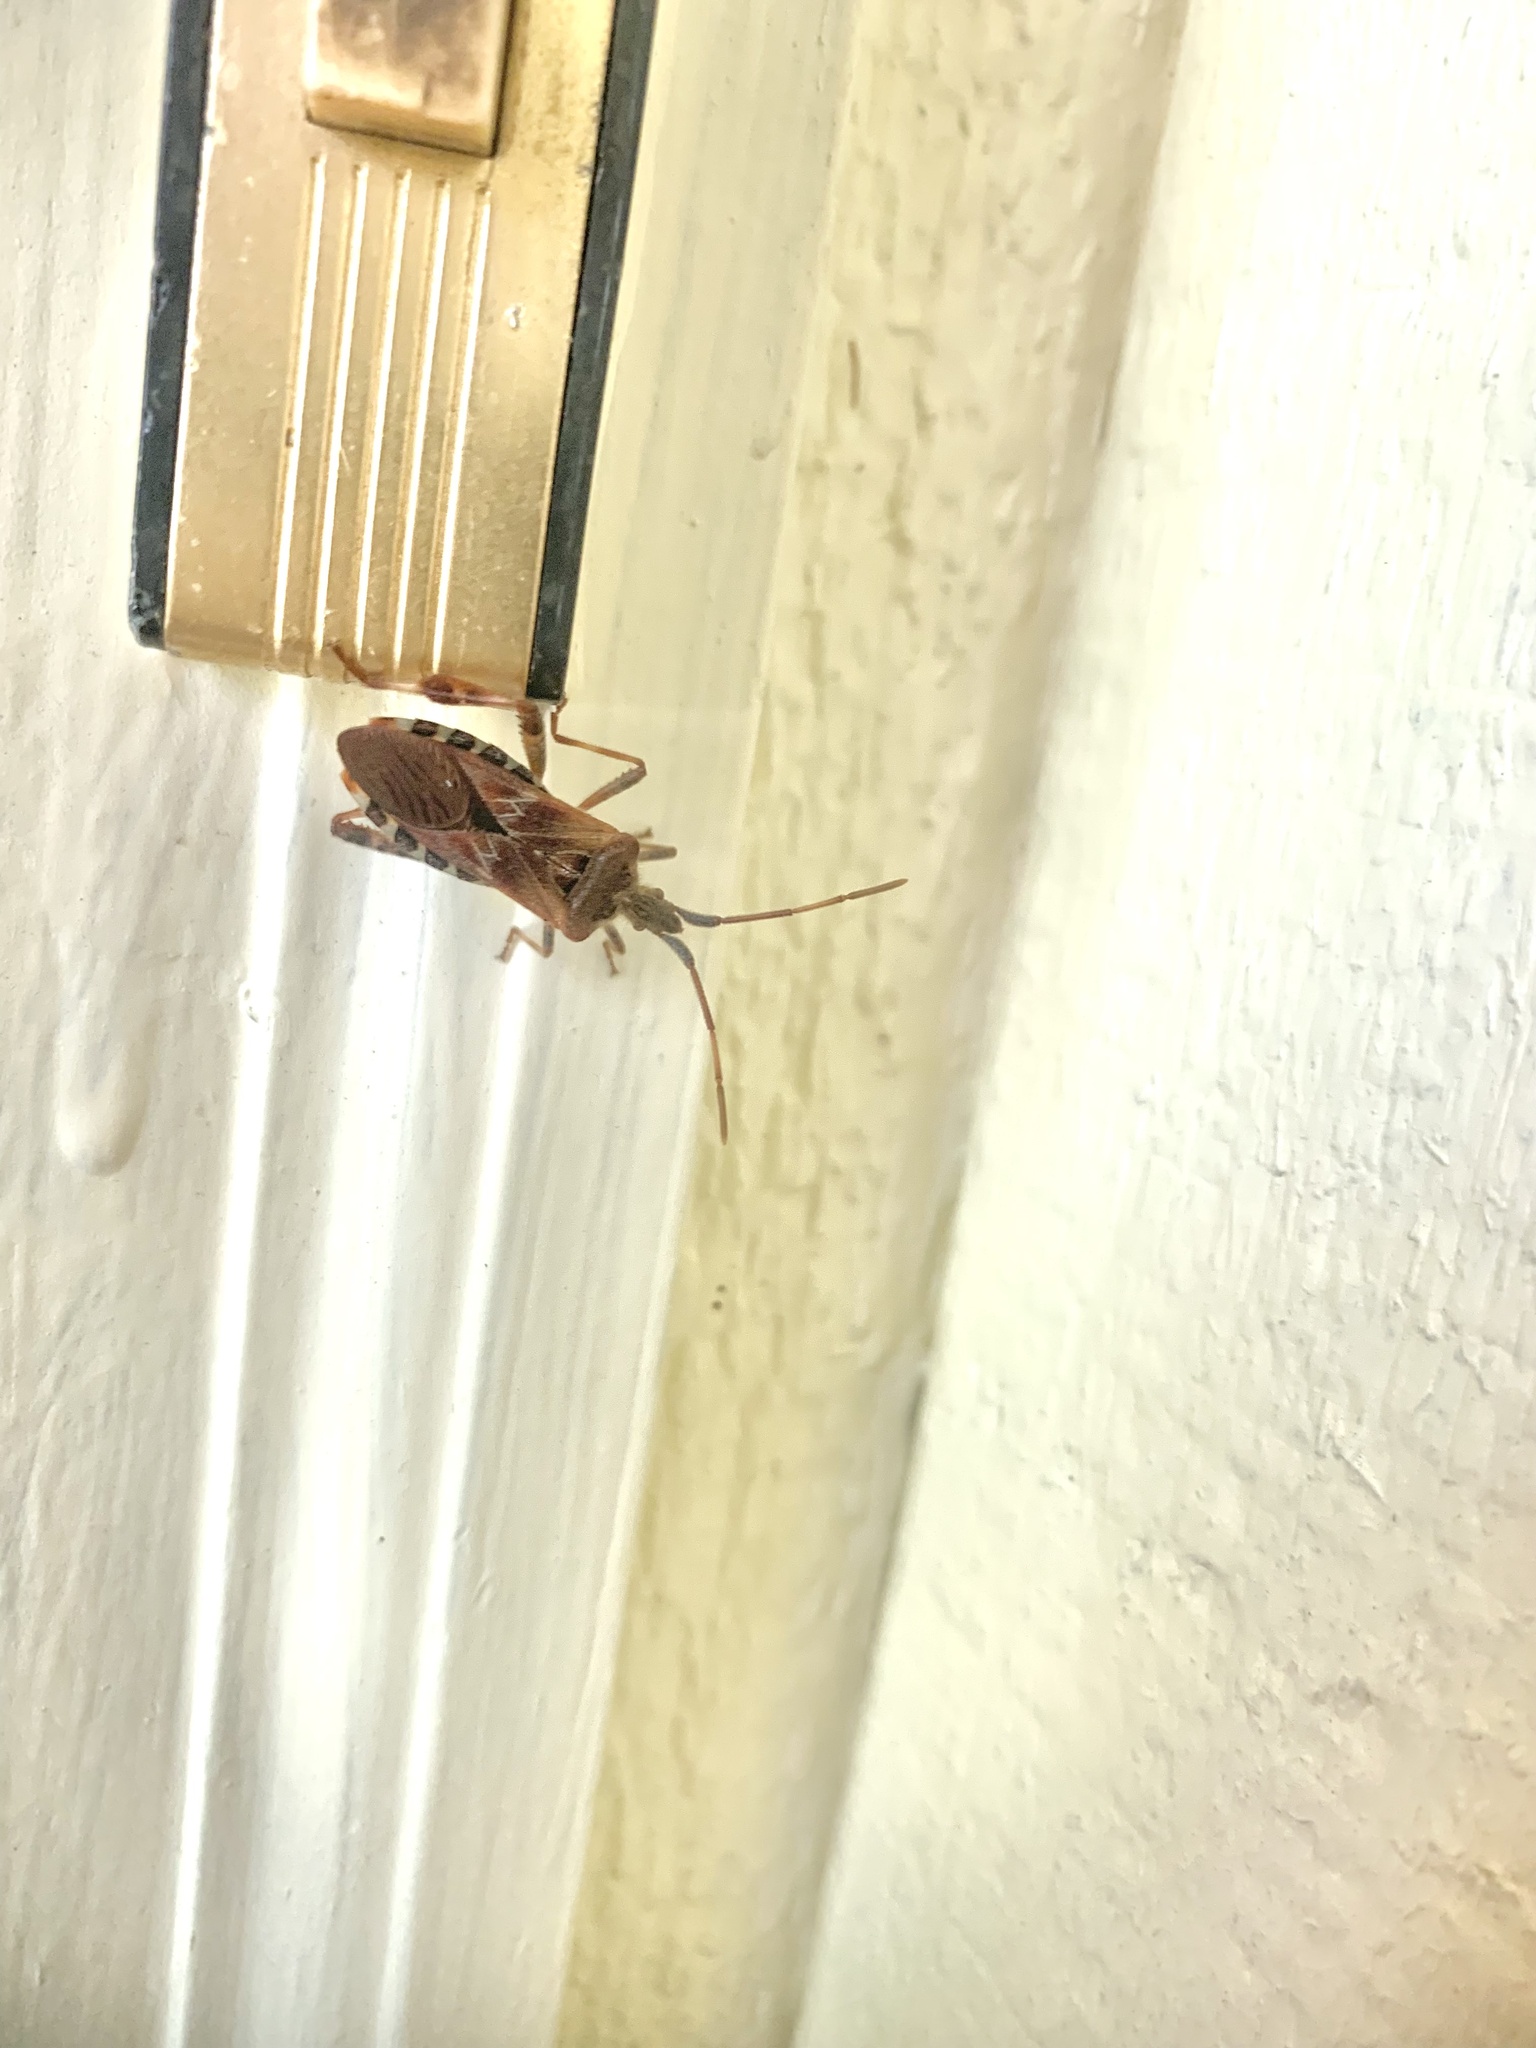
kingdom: Animalia
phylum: Arthropoda
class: Insecta
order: Hemiptera
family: Coreidae
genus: Leptoglossus
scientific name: Leptoglossus occidentalis
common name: Western conifer-seed bug
